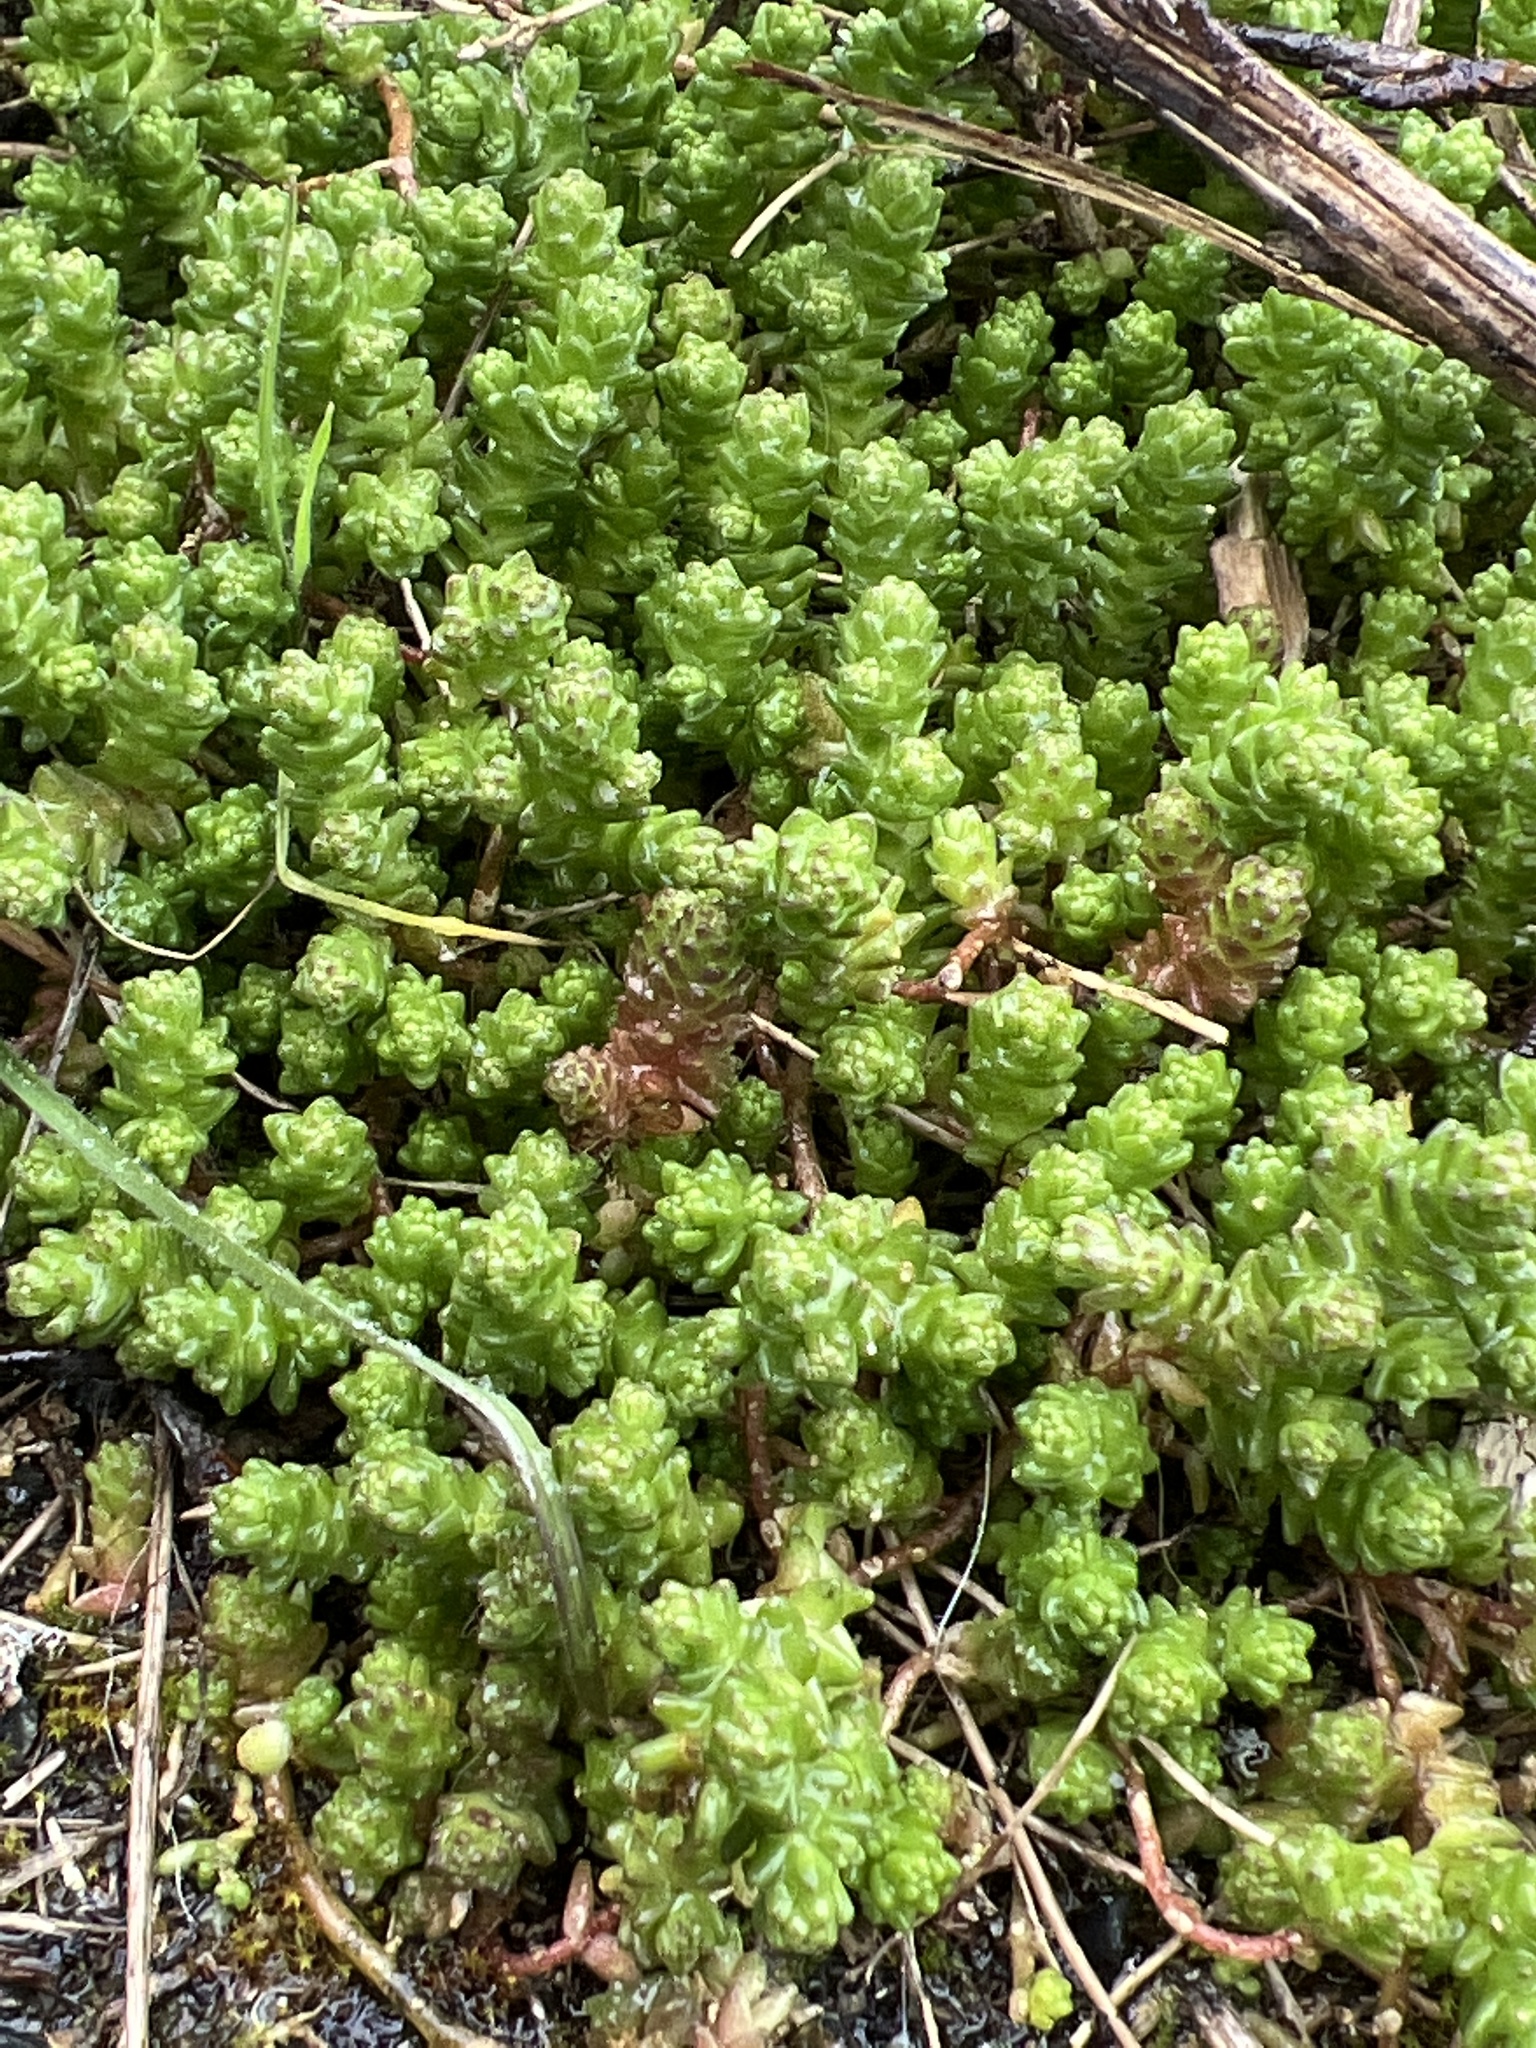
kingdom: Plantae
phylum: Tracheophyta
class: Magnoliopsida
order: Saxifragales
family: Crassulaceae
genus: Sedum
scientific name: Sedum acre
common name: Biting stonecrop
